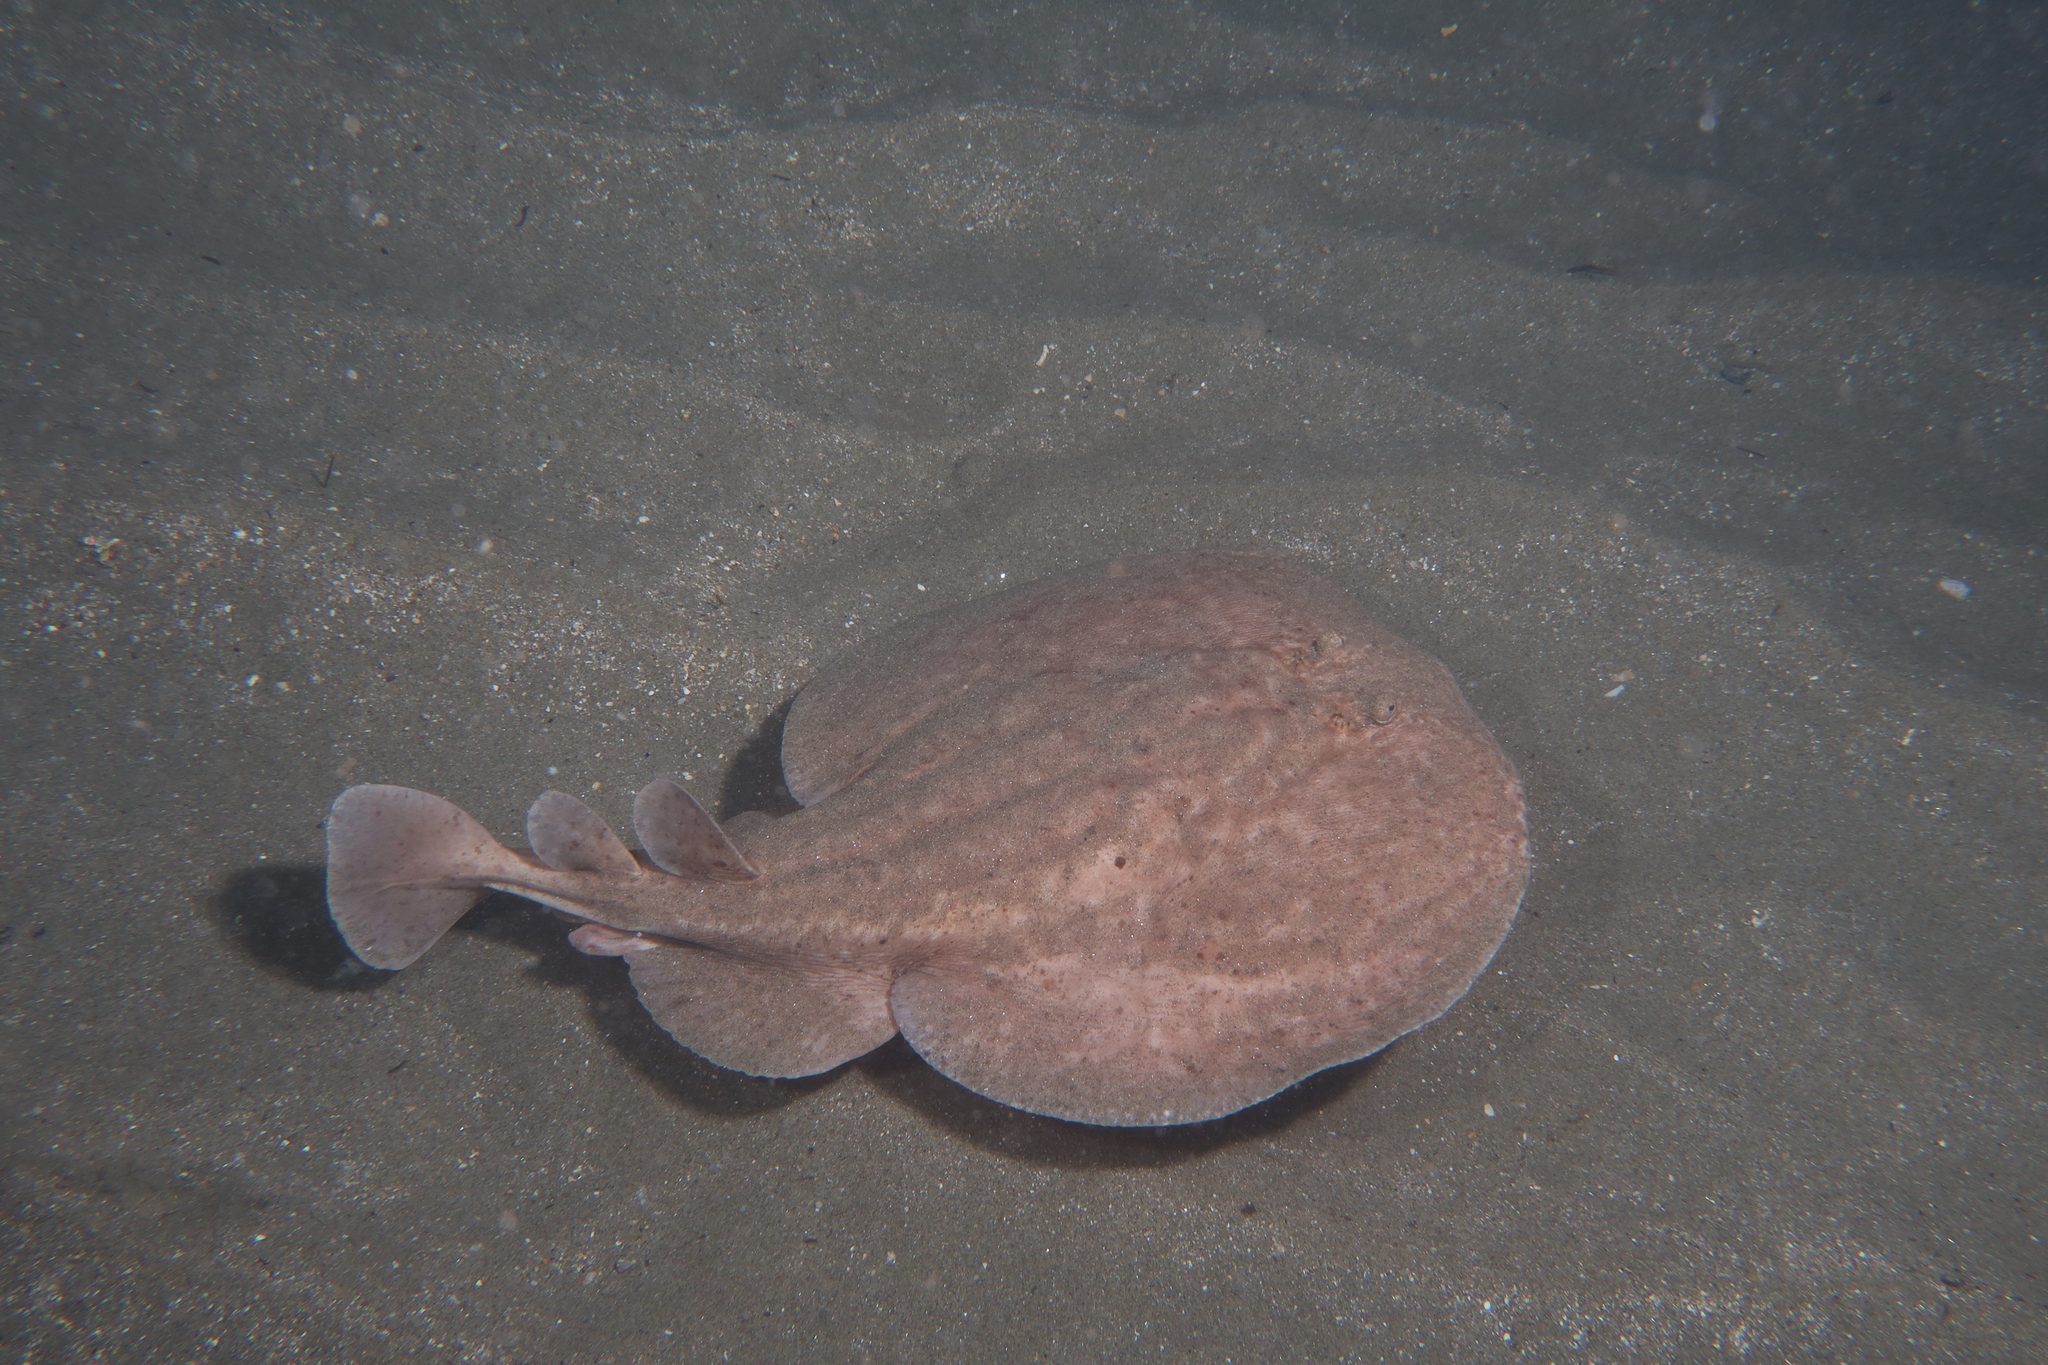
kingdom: Animalia
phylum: Chordata
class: Elasmobranchii
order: Torpediniformes
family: Torpedinidae
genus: Torpedo
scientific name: Torpedo marmorata
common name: Marbled electric ray
